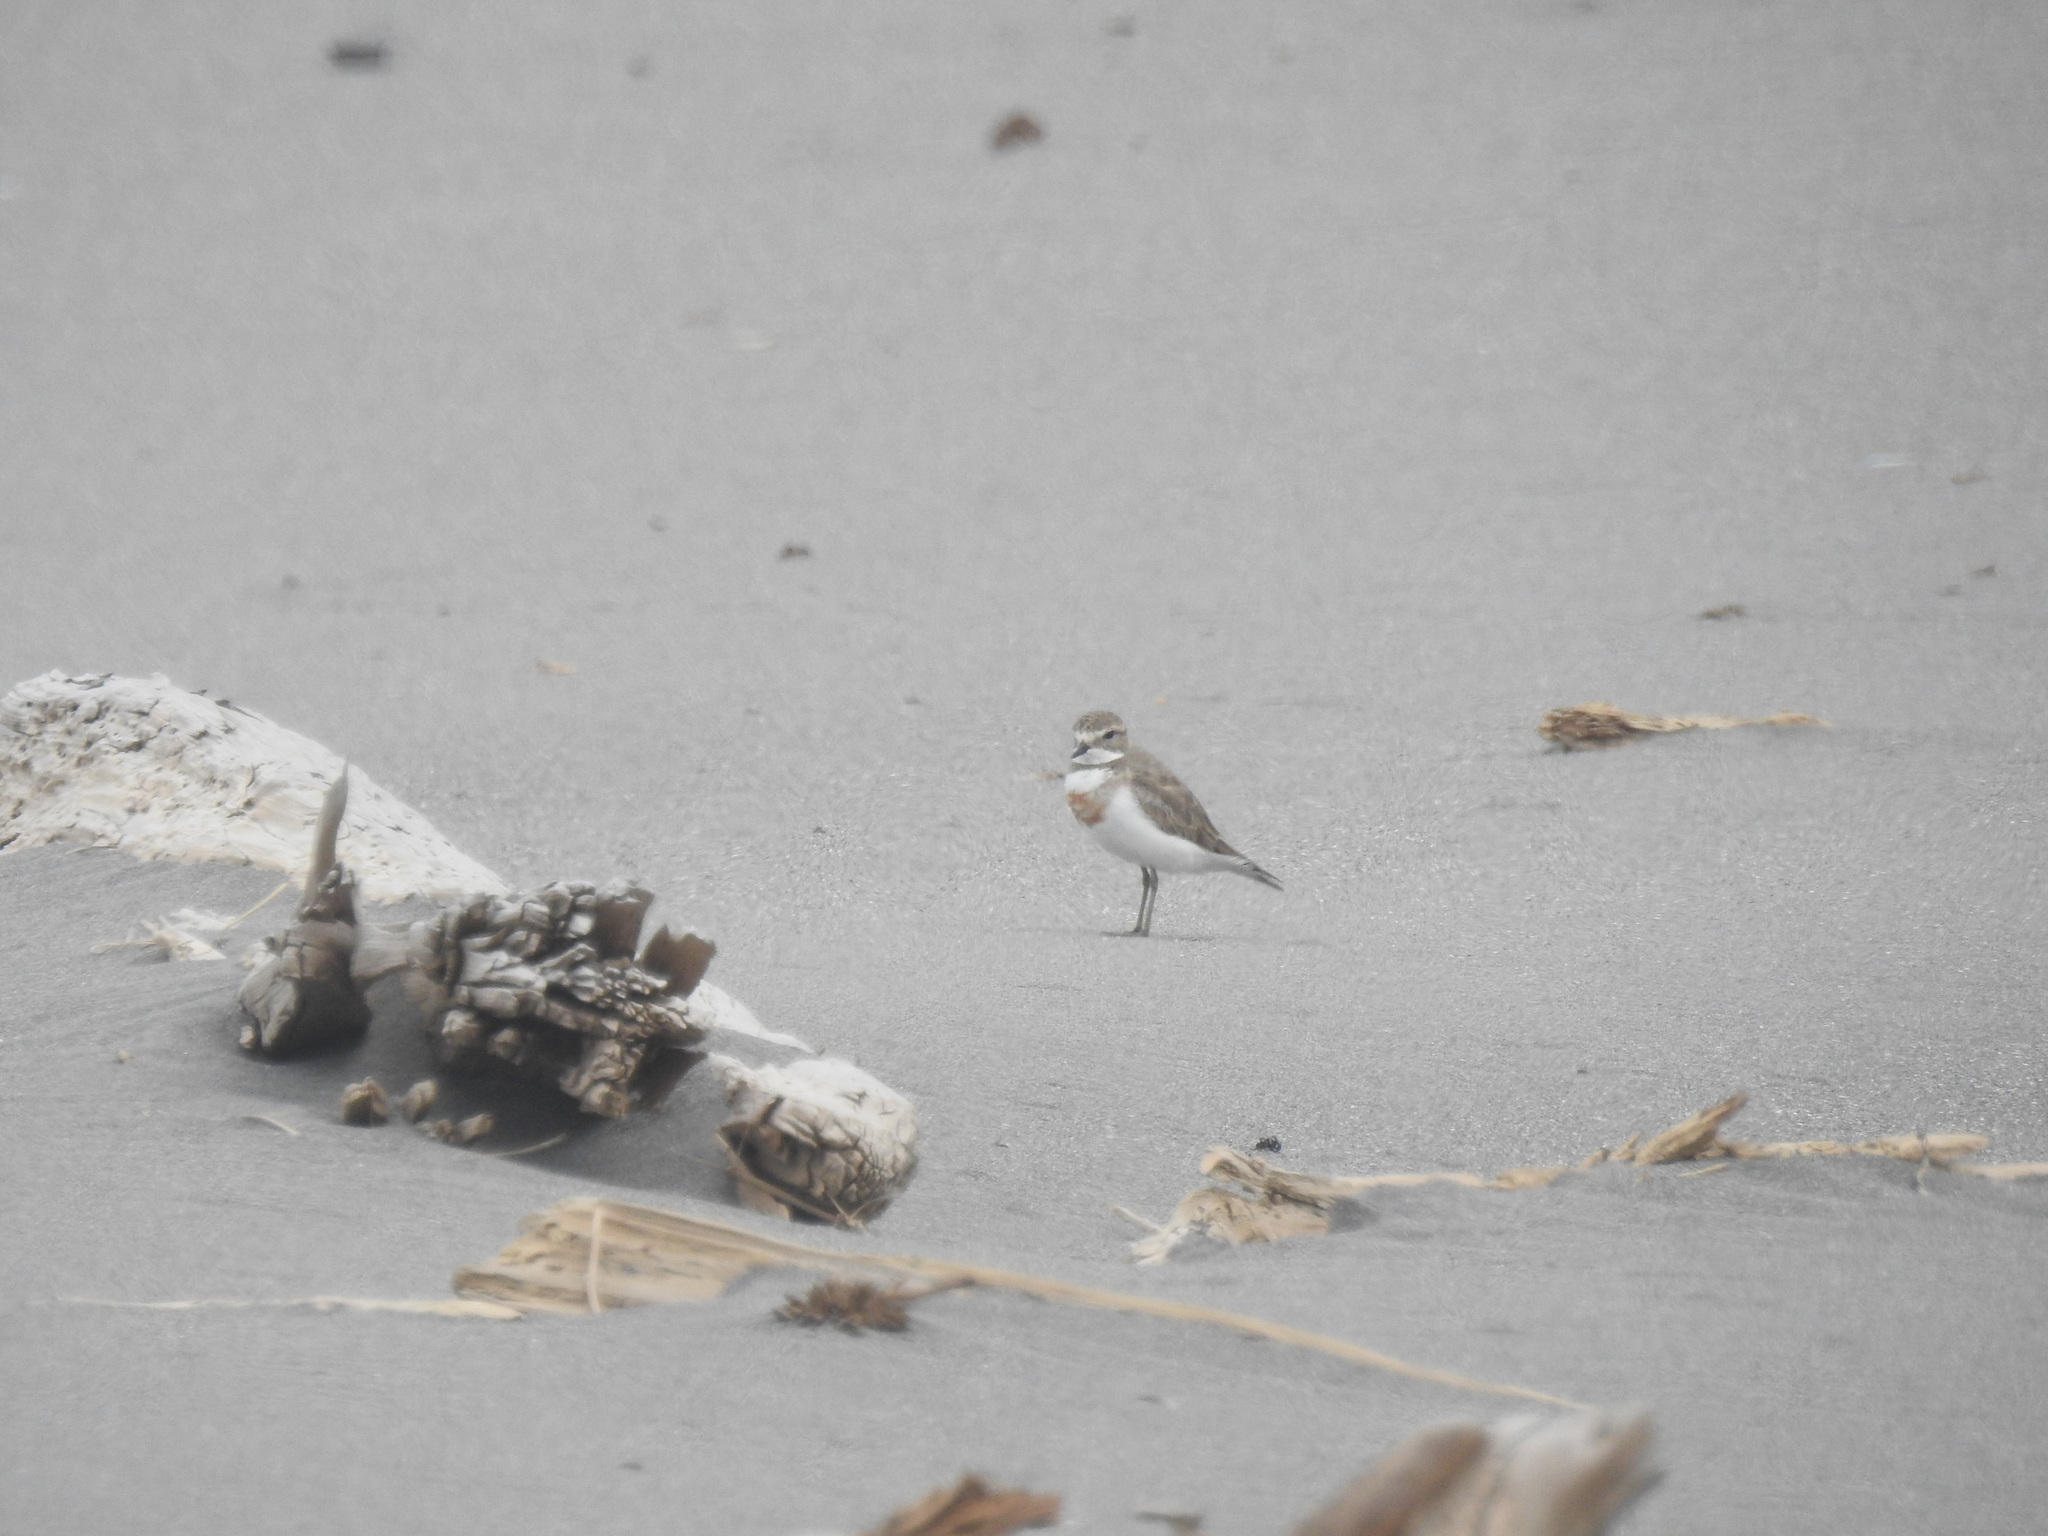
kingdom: Animalia
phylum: Chordata
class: Aves
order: Charadriiformes
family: Charadriidae
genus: Anarhynchus
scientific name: Anarhynchus
